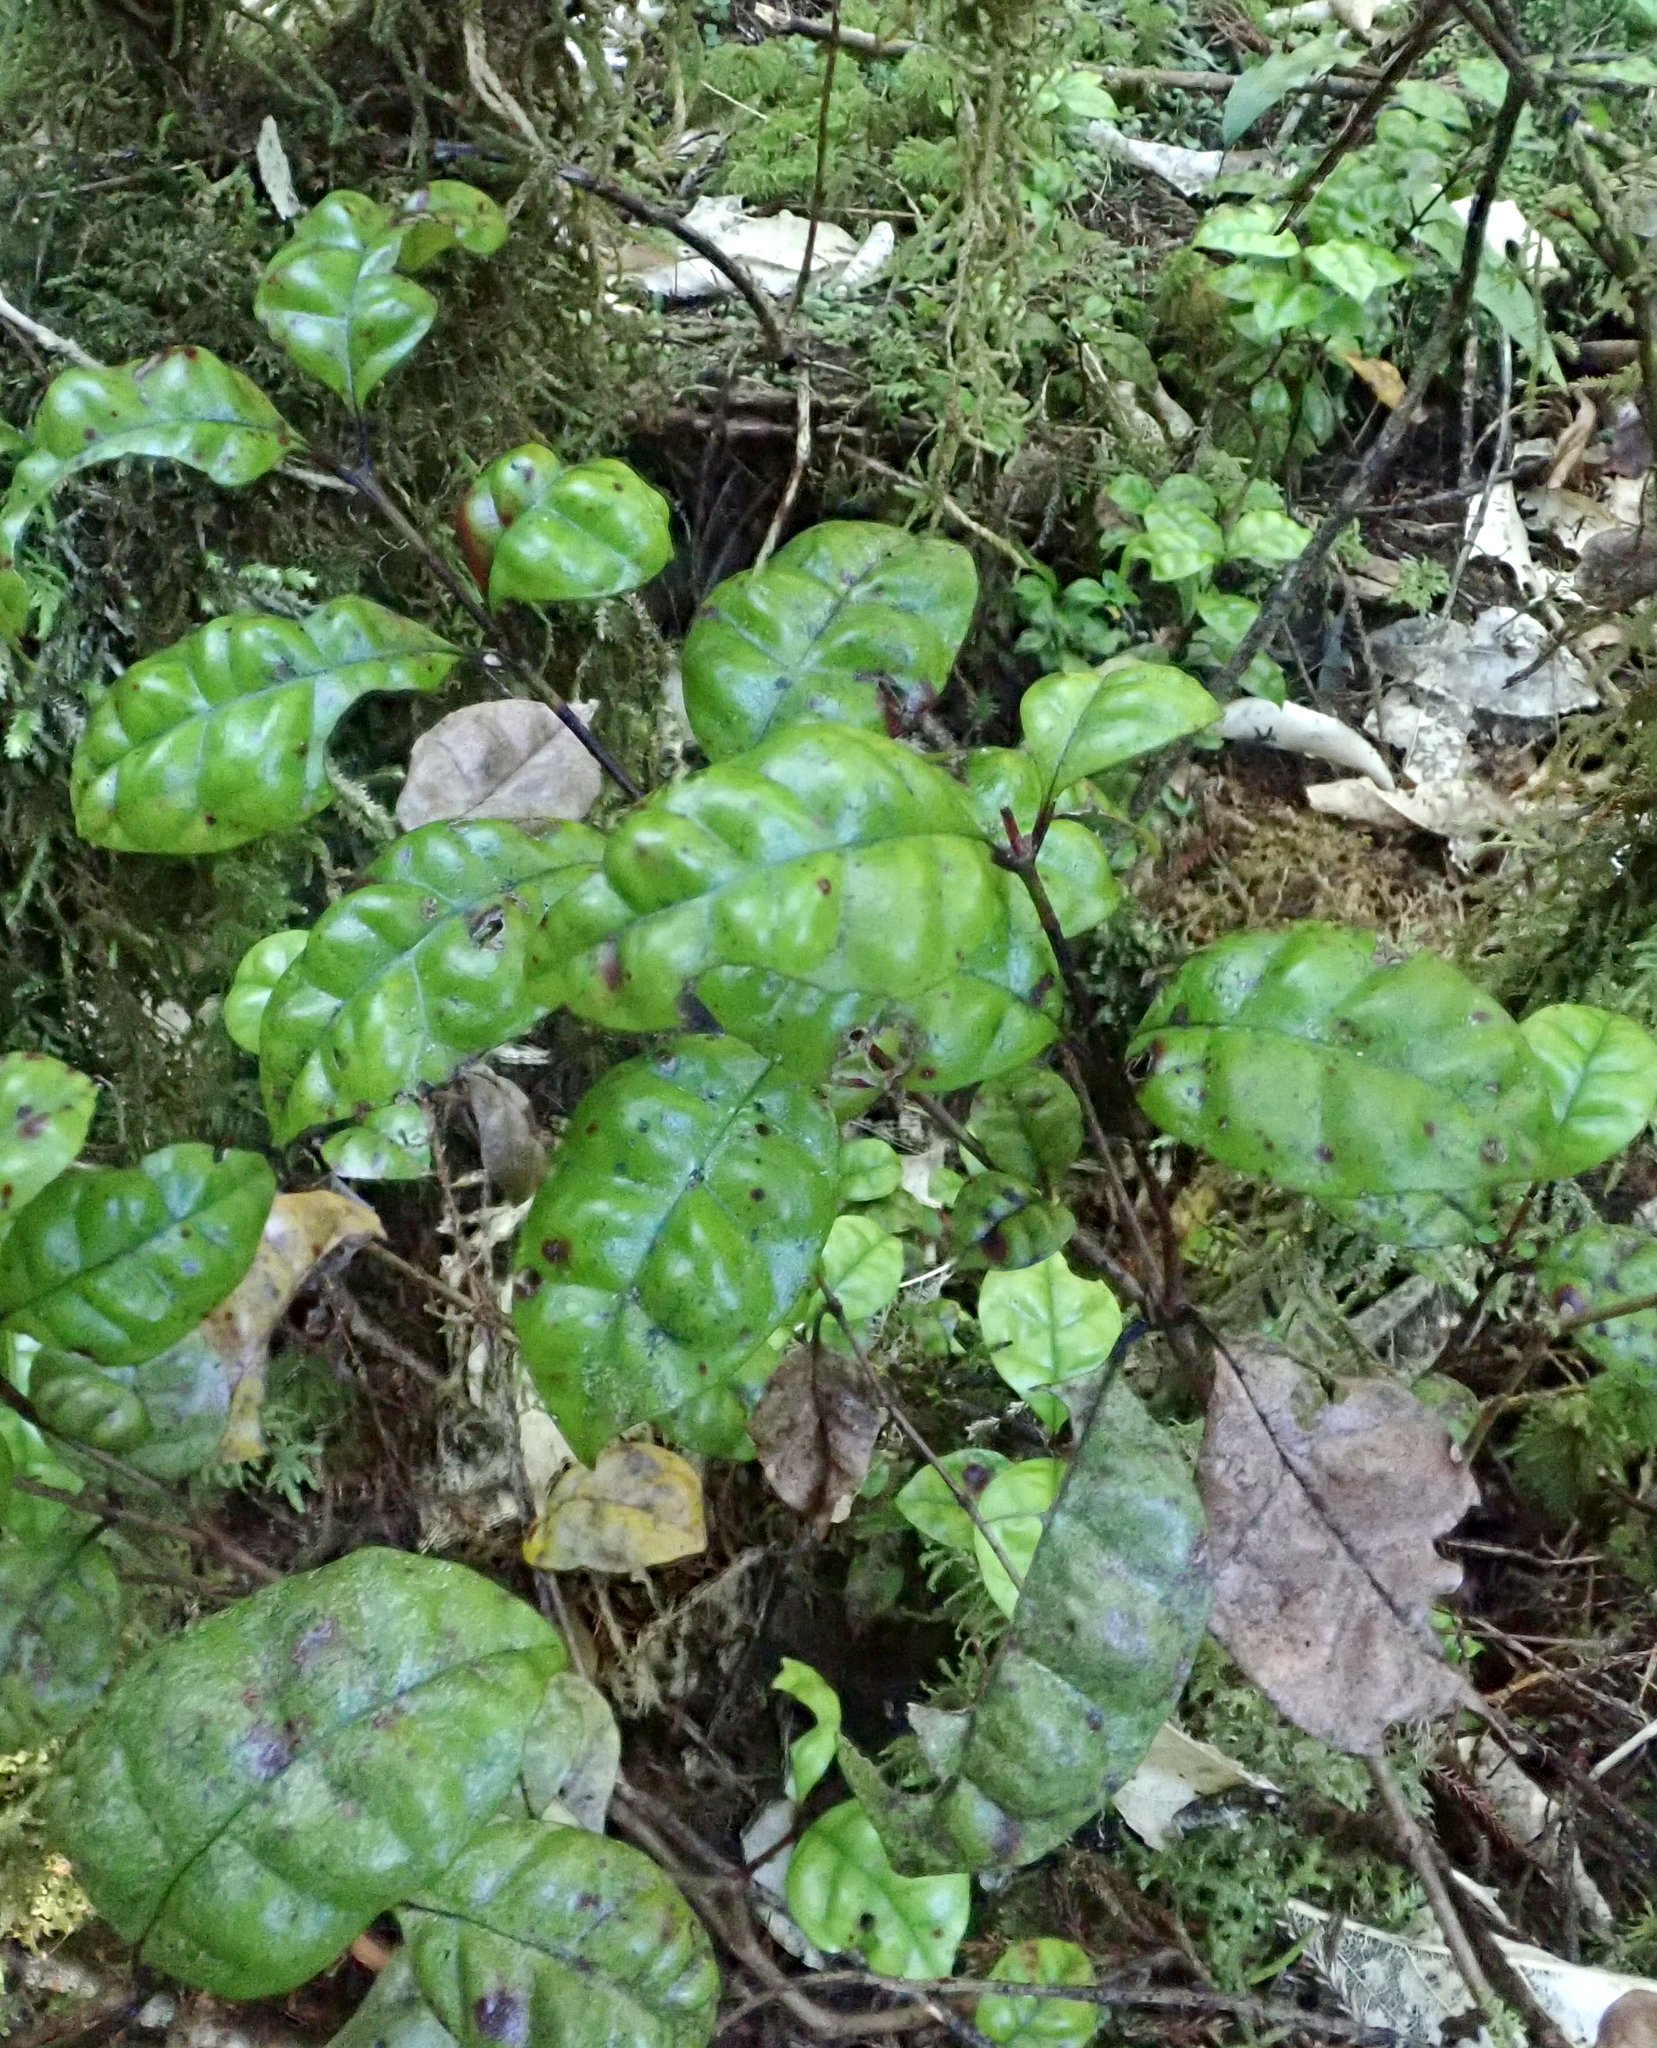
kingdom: Plantae
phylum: Tracheophyta
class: Magnoliopsida
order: Myrtales
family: Myrtaceae
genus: Lophomyrtus
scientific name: Lophomyrtus bullata
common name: Rama rama
